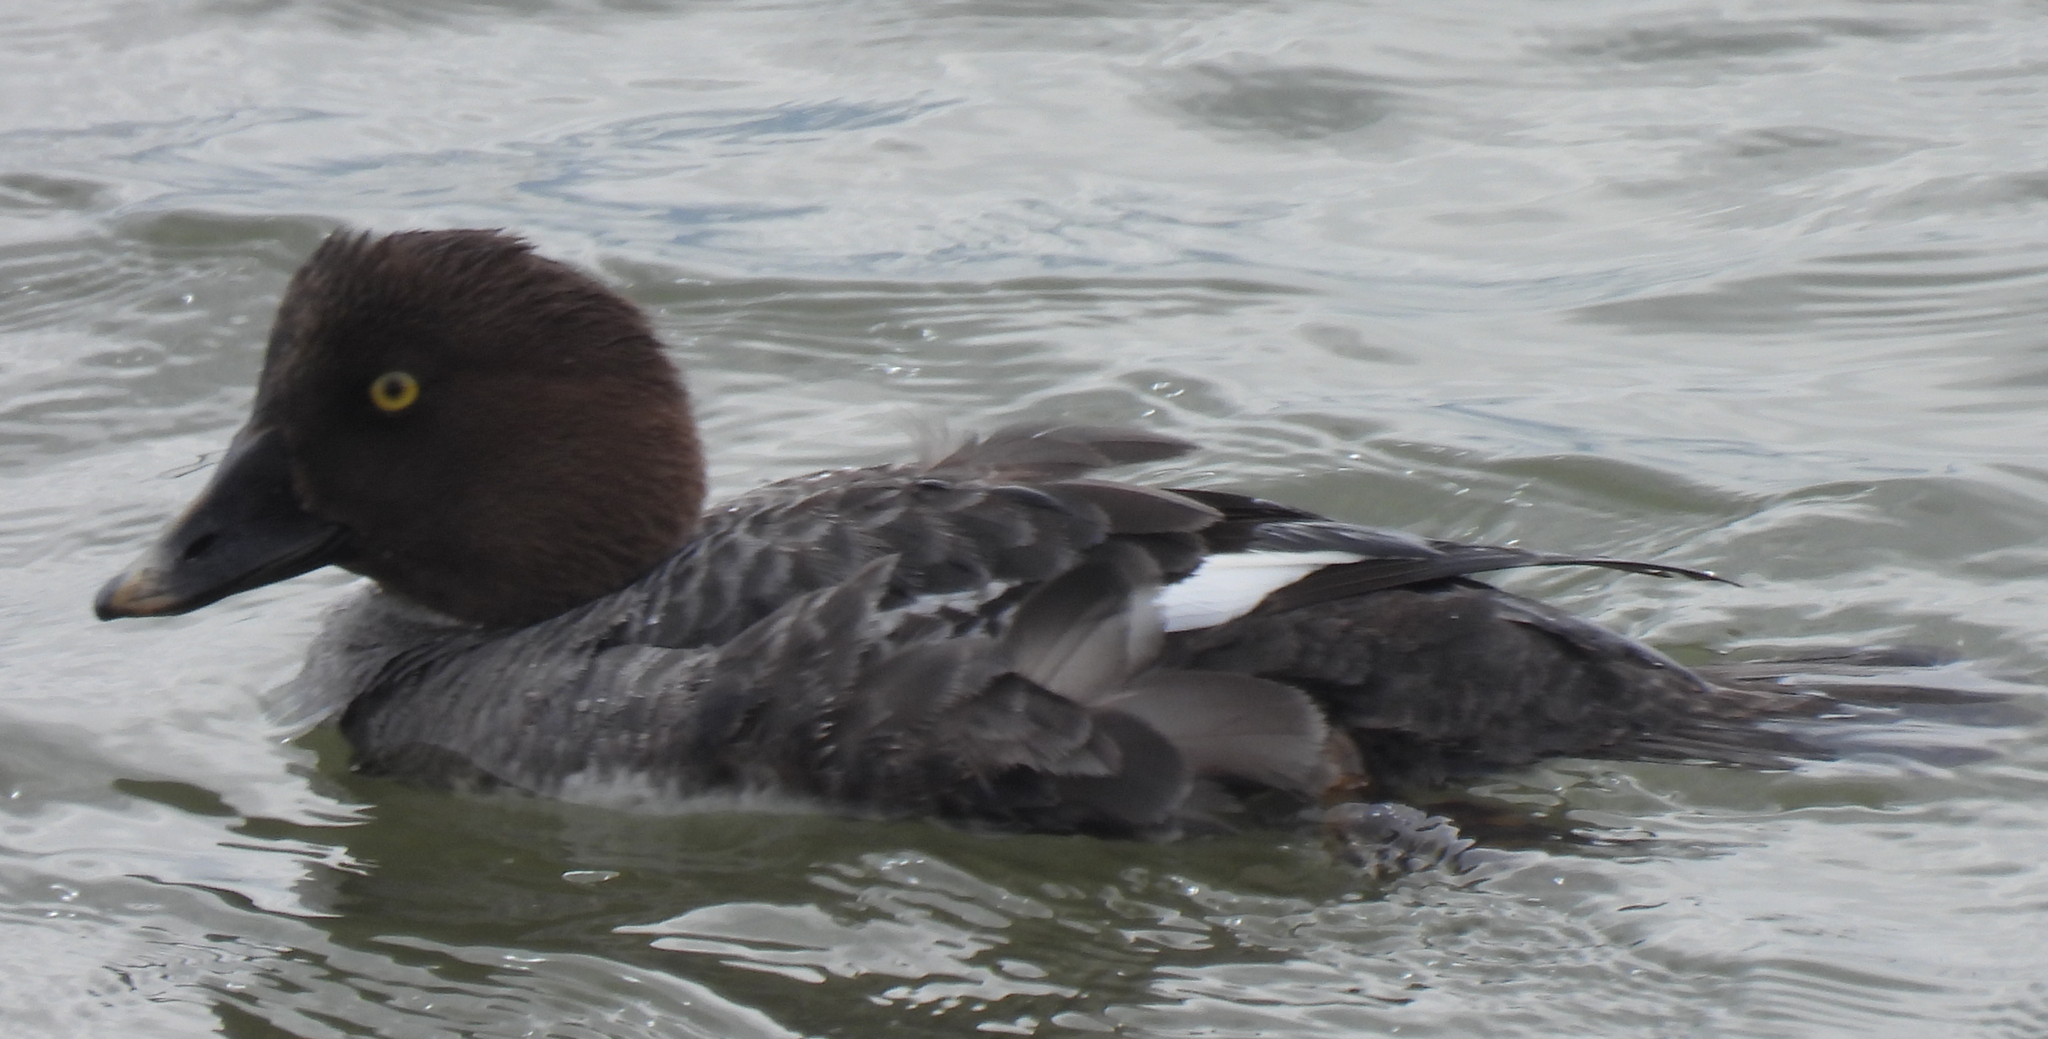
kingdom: Animalia
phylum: Chordata
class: Aves
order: Anseriformes
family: Anatidae
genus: Bucephala
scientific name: Bucephala clangula
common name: Common goldeneye
